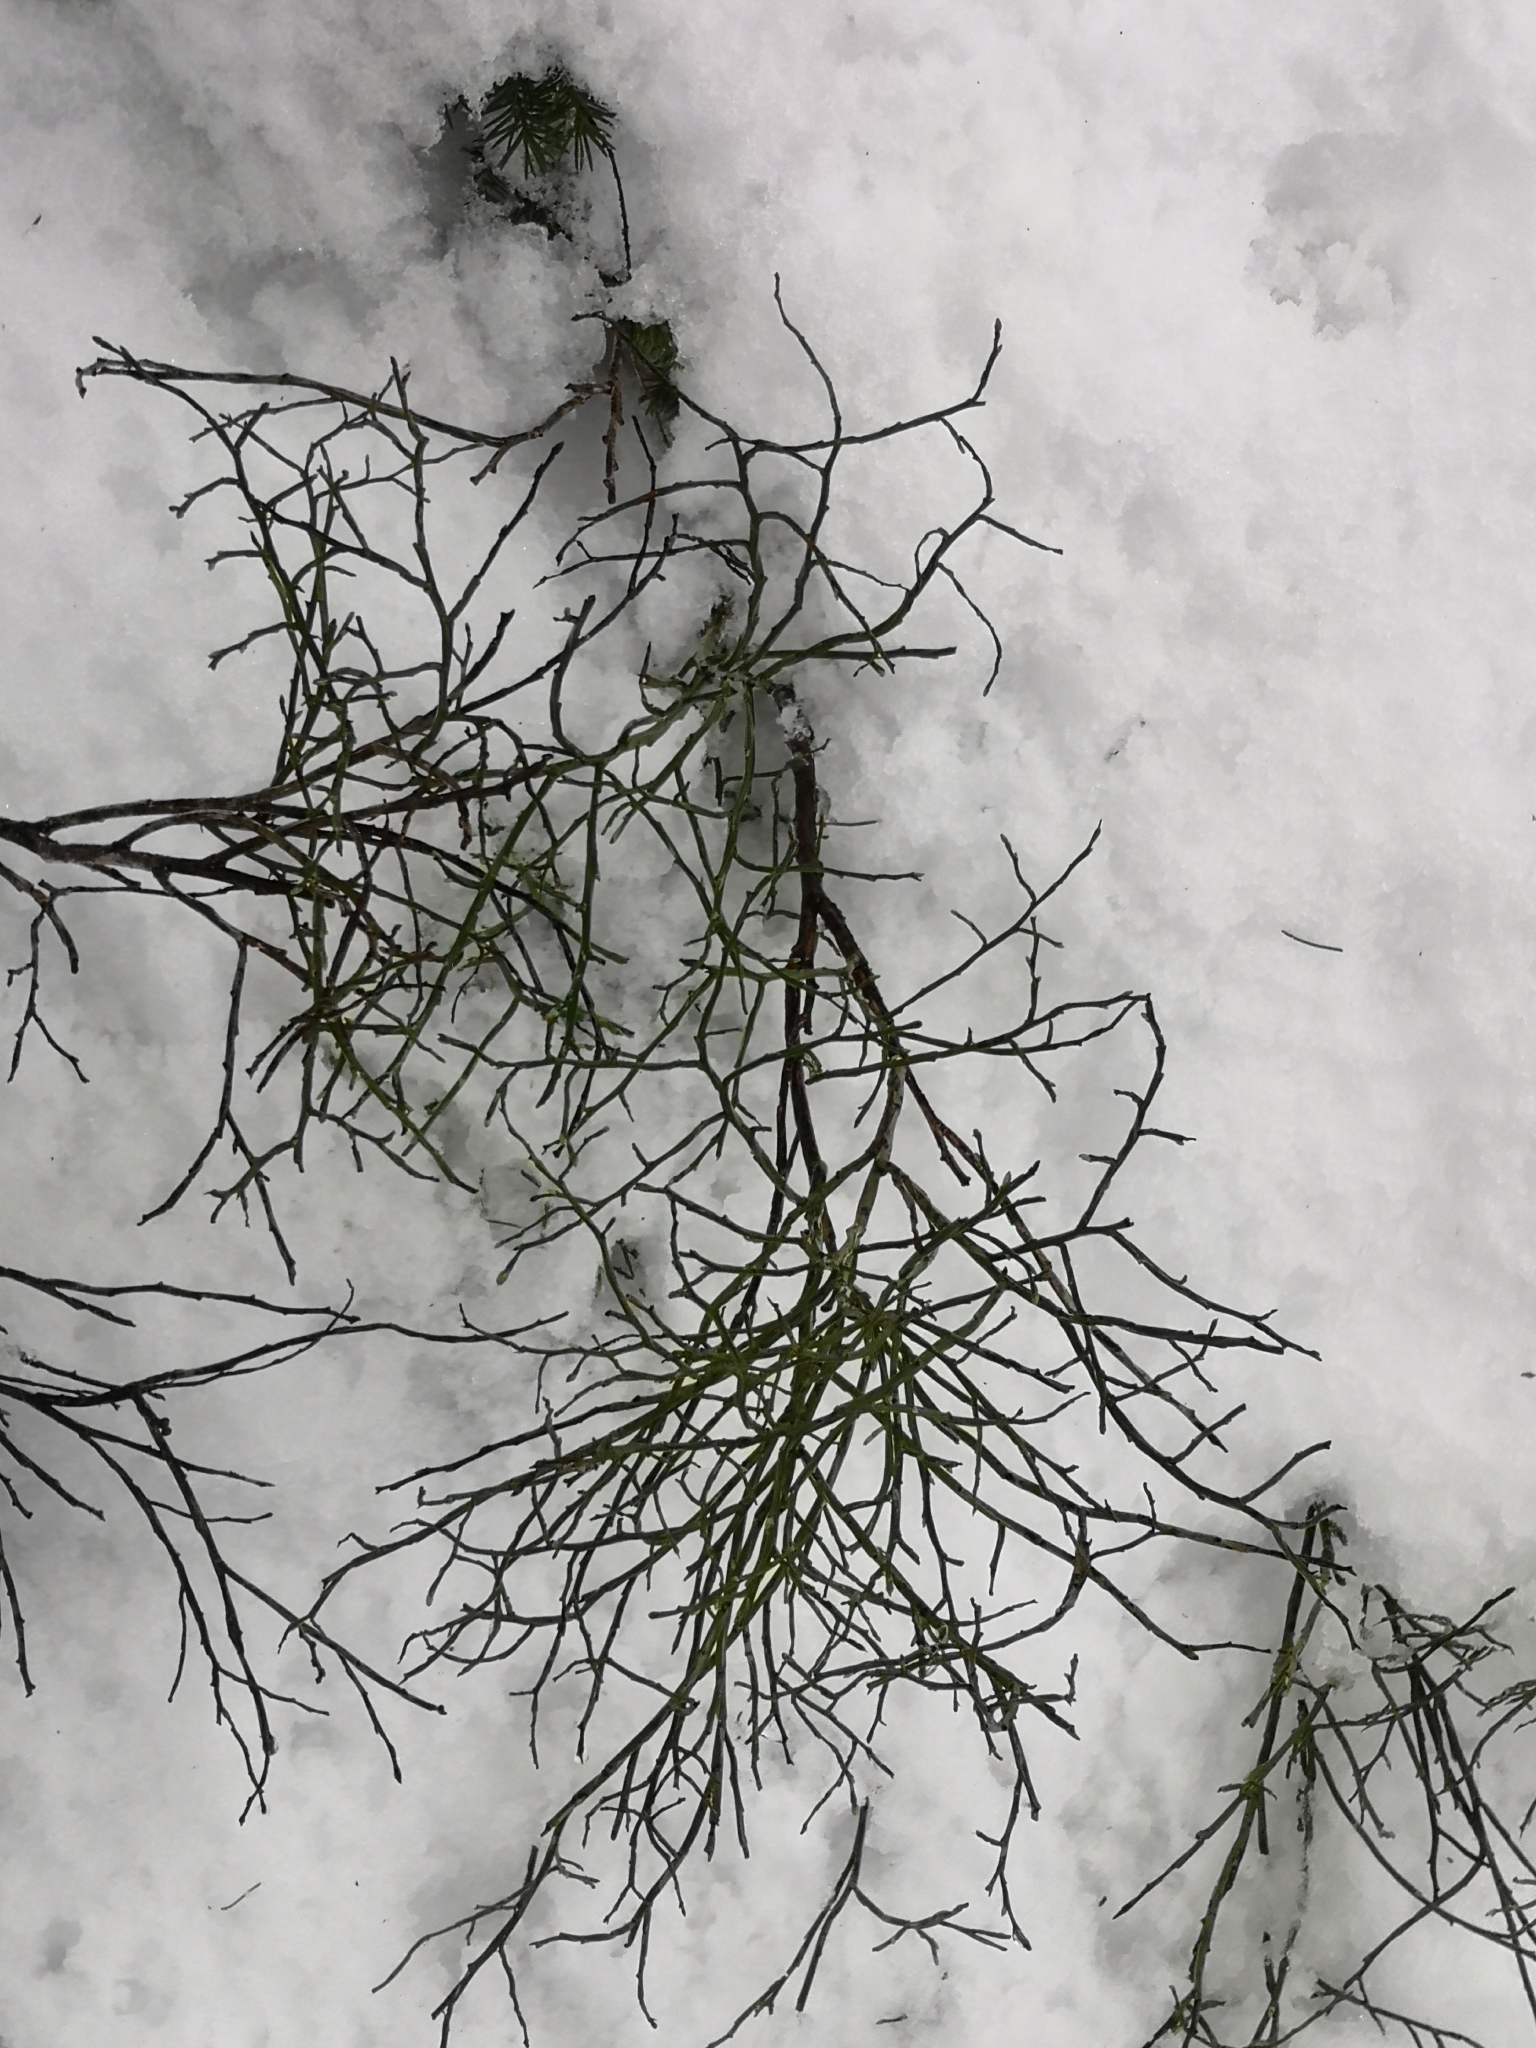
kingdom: Plantae
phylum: Tracheophyta
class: Magnoliopsida
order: Ericales
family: Ericaceae
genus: Vaccinium
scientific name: Vaccinium myrtillus
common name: Bilberry
